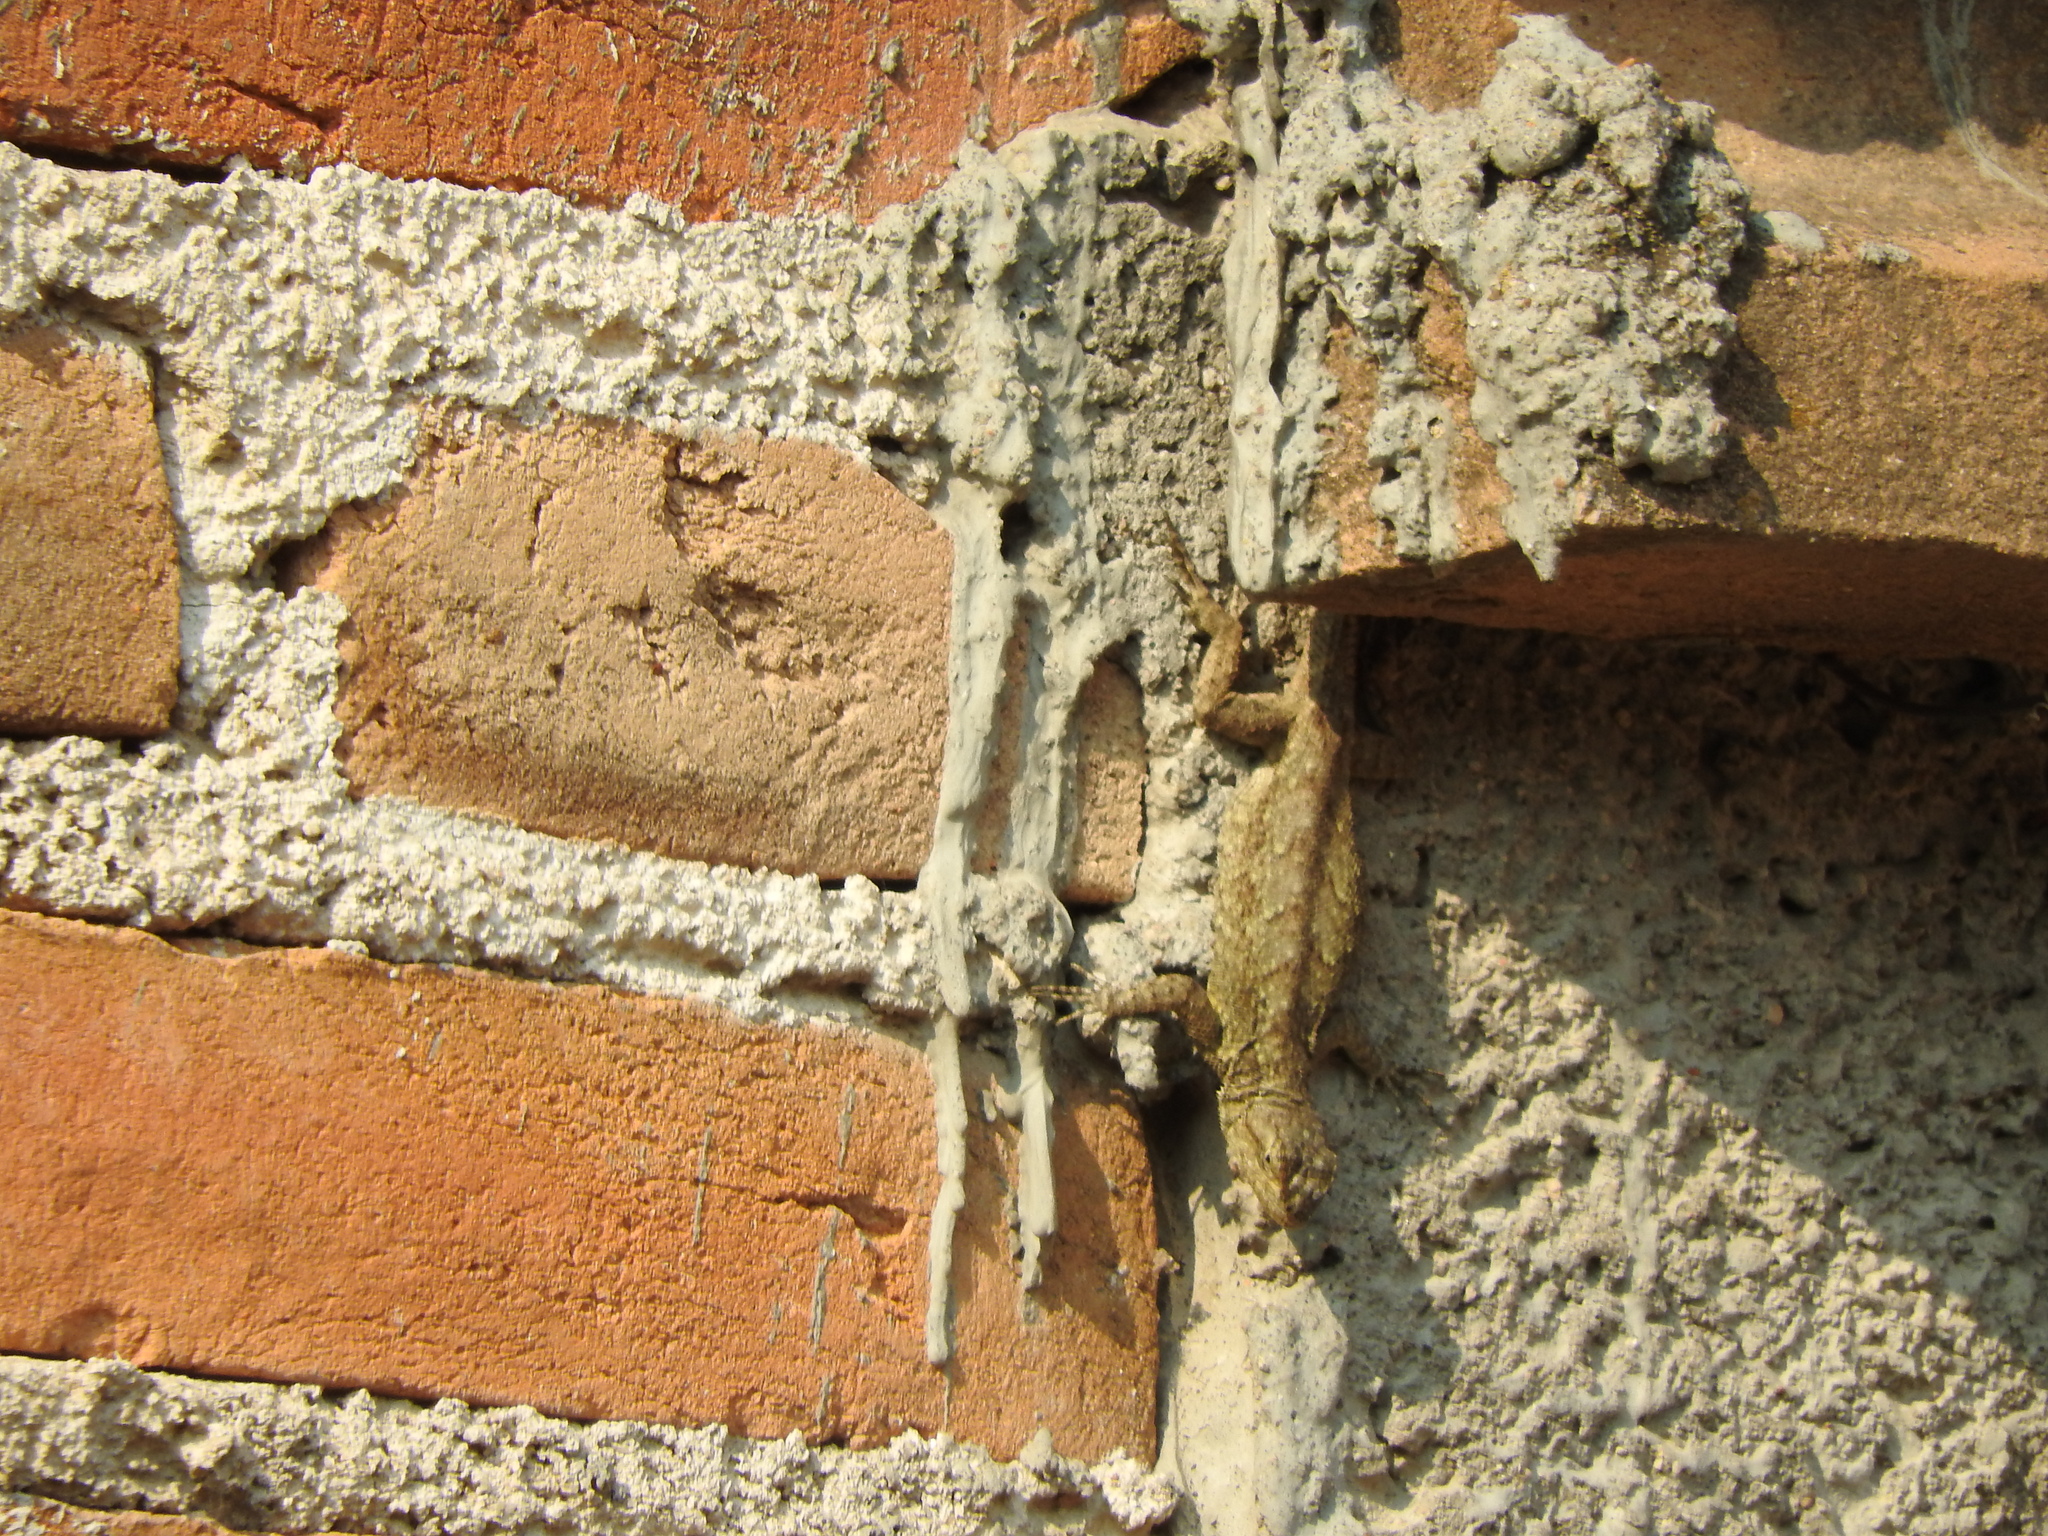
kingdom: Animalia
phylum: Chordata
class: Squamata
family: Phrynosomatidae
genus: Sceloporus
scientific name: Sceloporus grammicus
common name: Mesquite lizard
